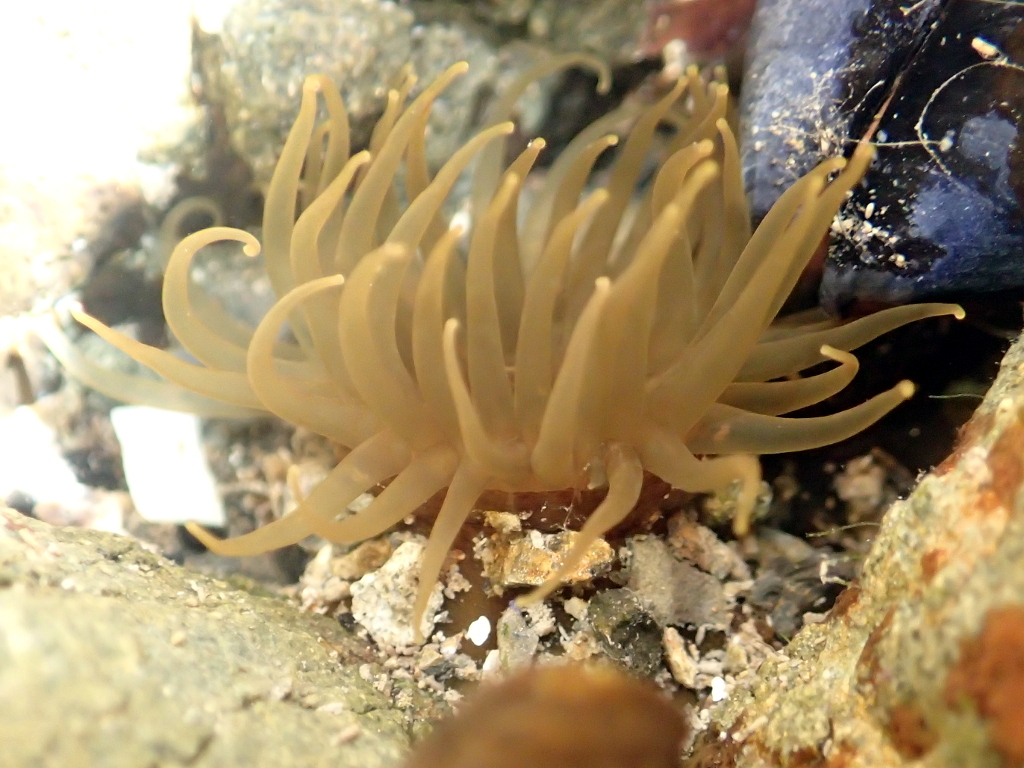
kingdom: Animalia
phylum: Cnidaria
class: Anthozoa
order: Actiniaria
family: Actiniidae
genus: Isactinia
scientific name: Isactinia olivacea
